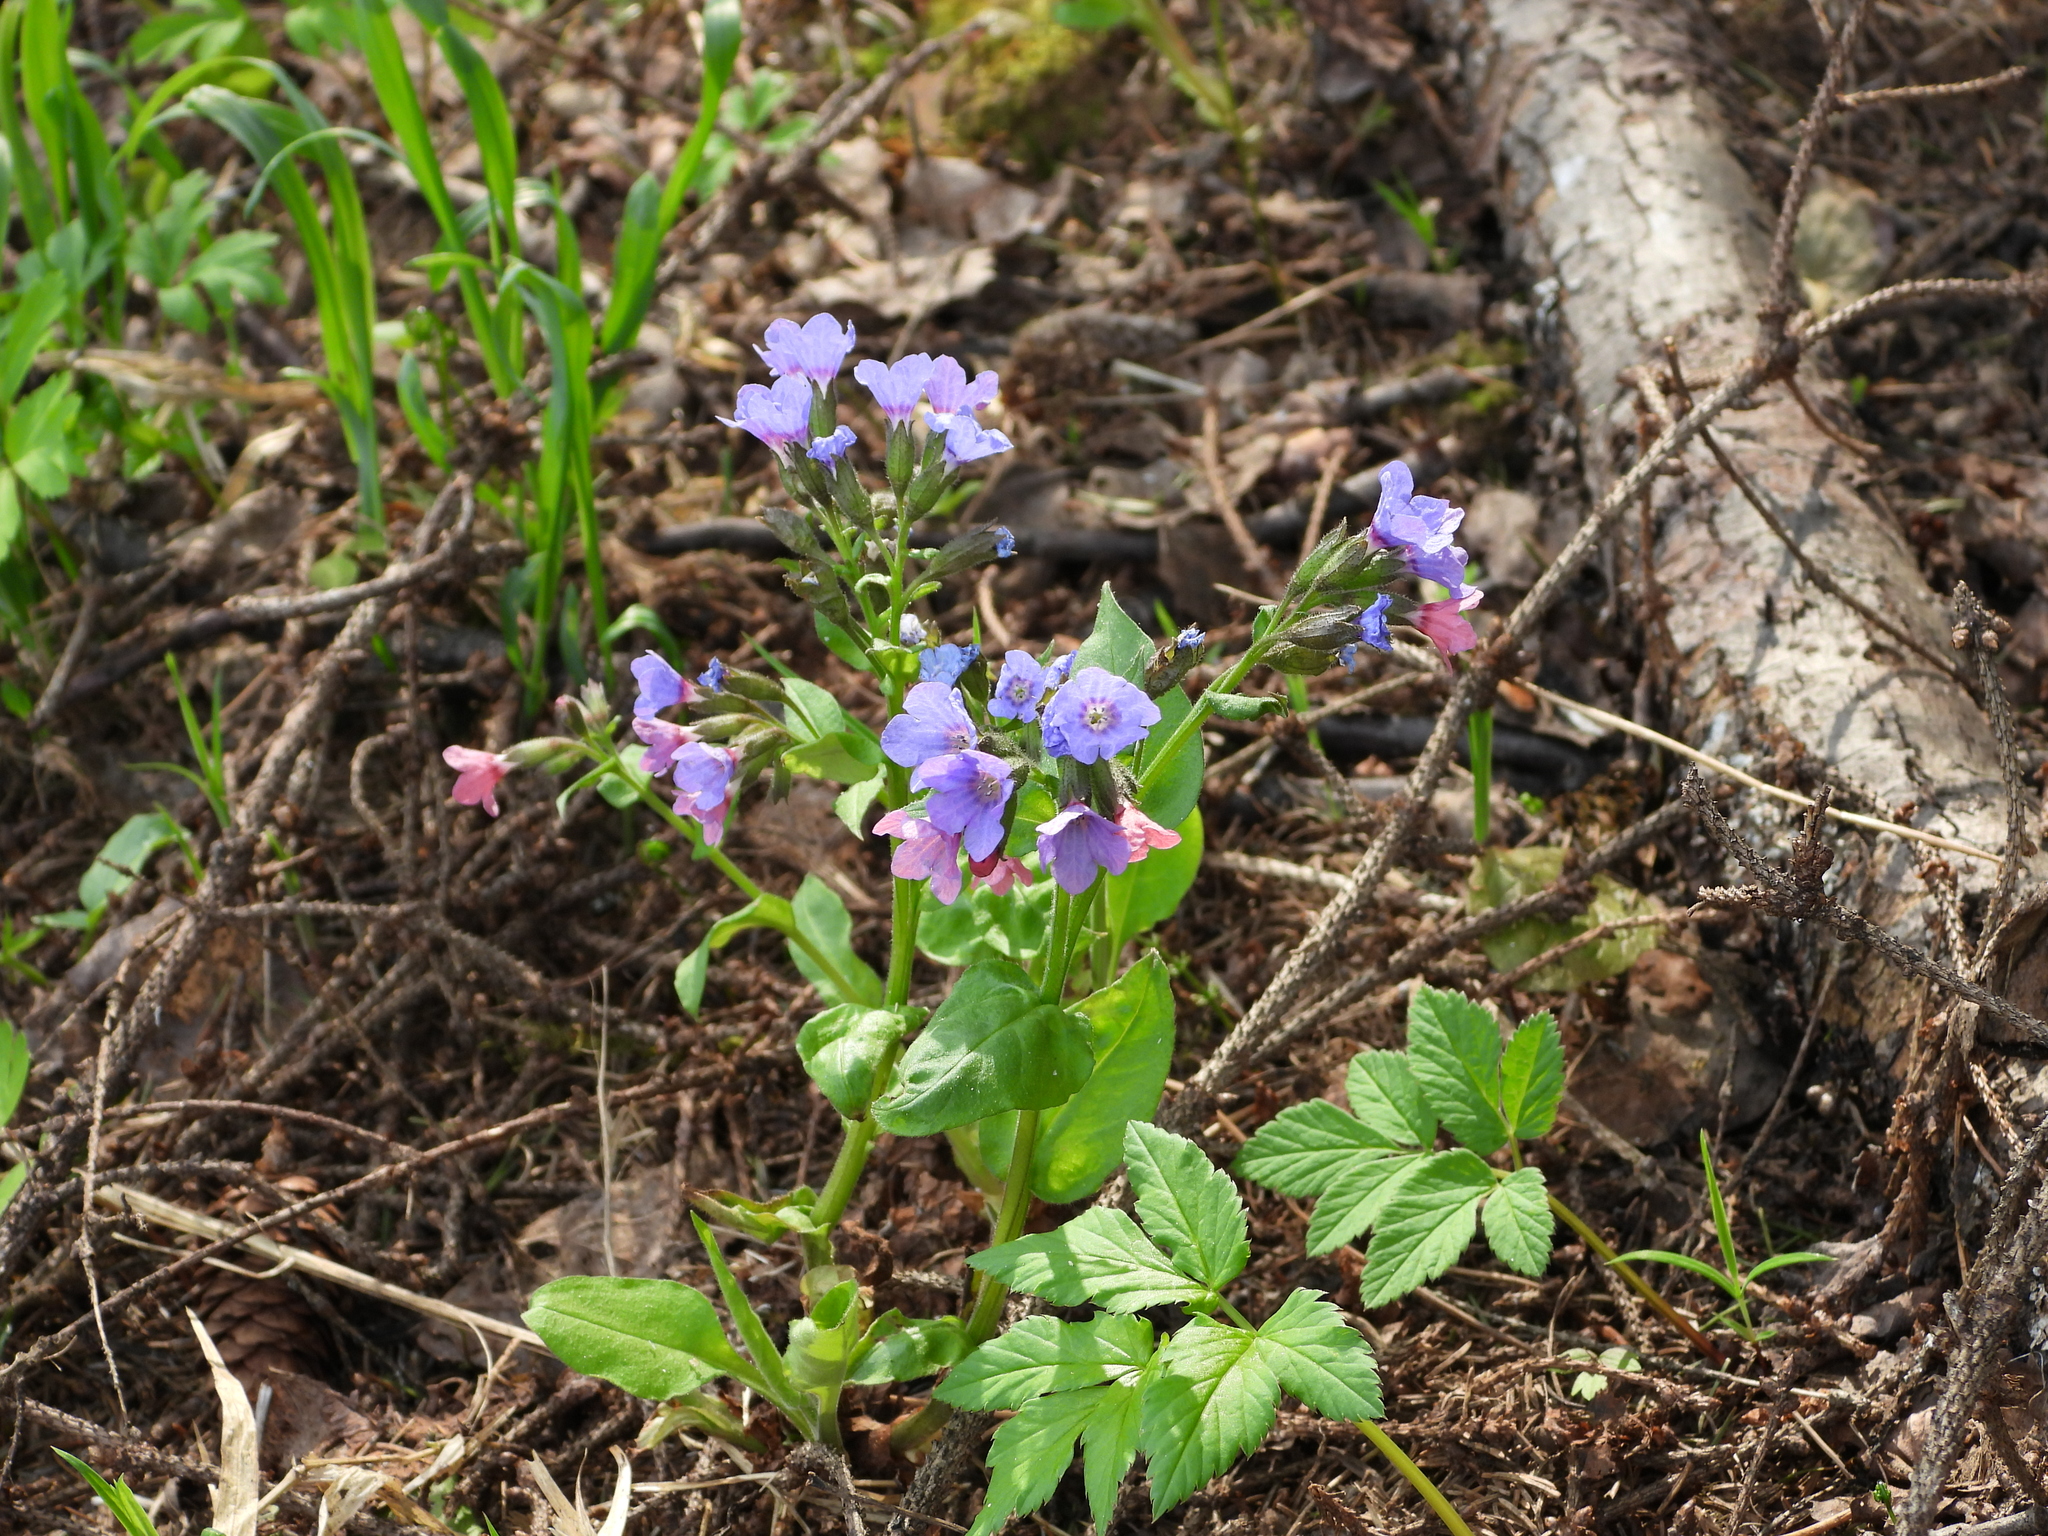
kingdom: Plantae
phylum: Tracheophyta
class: Magnoliopsida
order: Boraginales
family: Boraginaceae
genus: Pulmonaria
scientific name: Pulmonaria obscura
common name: Suffolk lungwort
